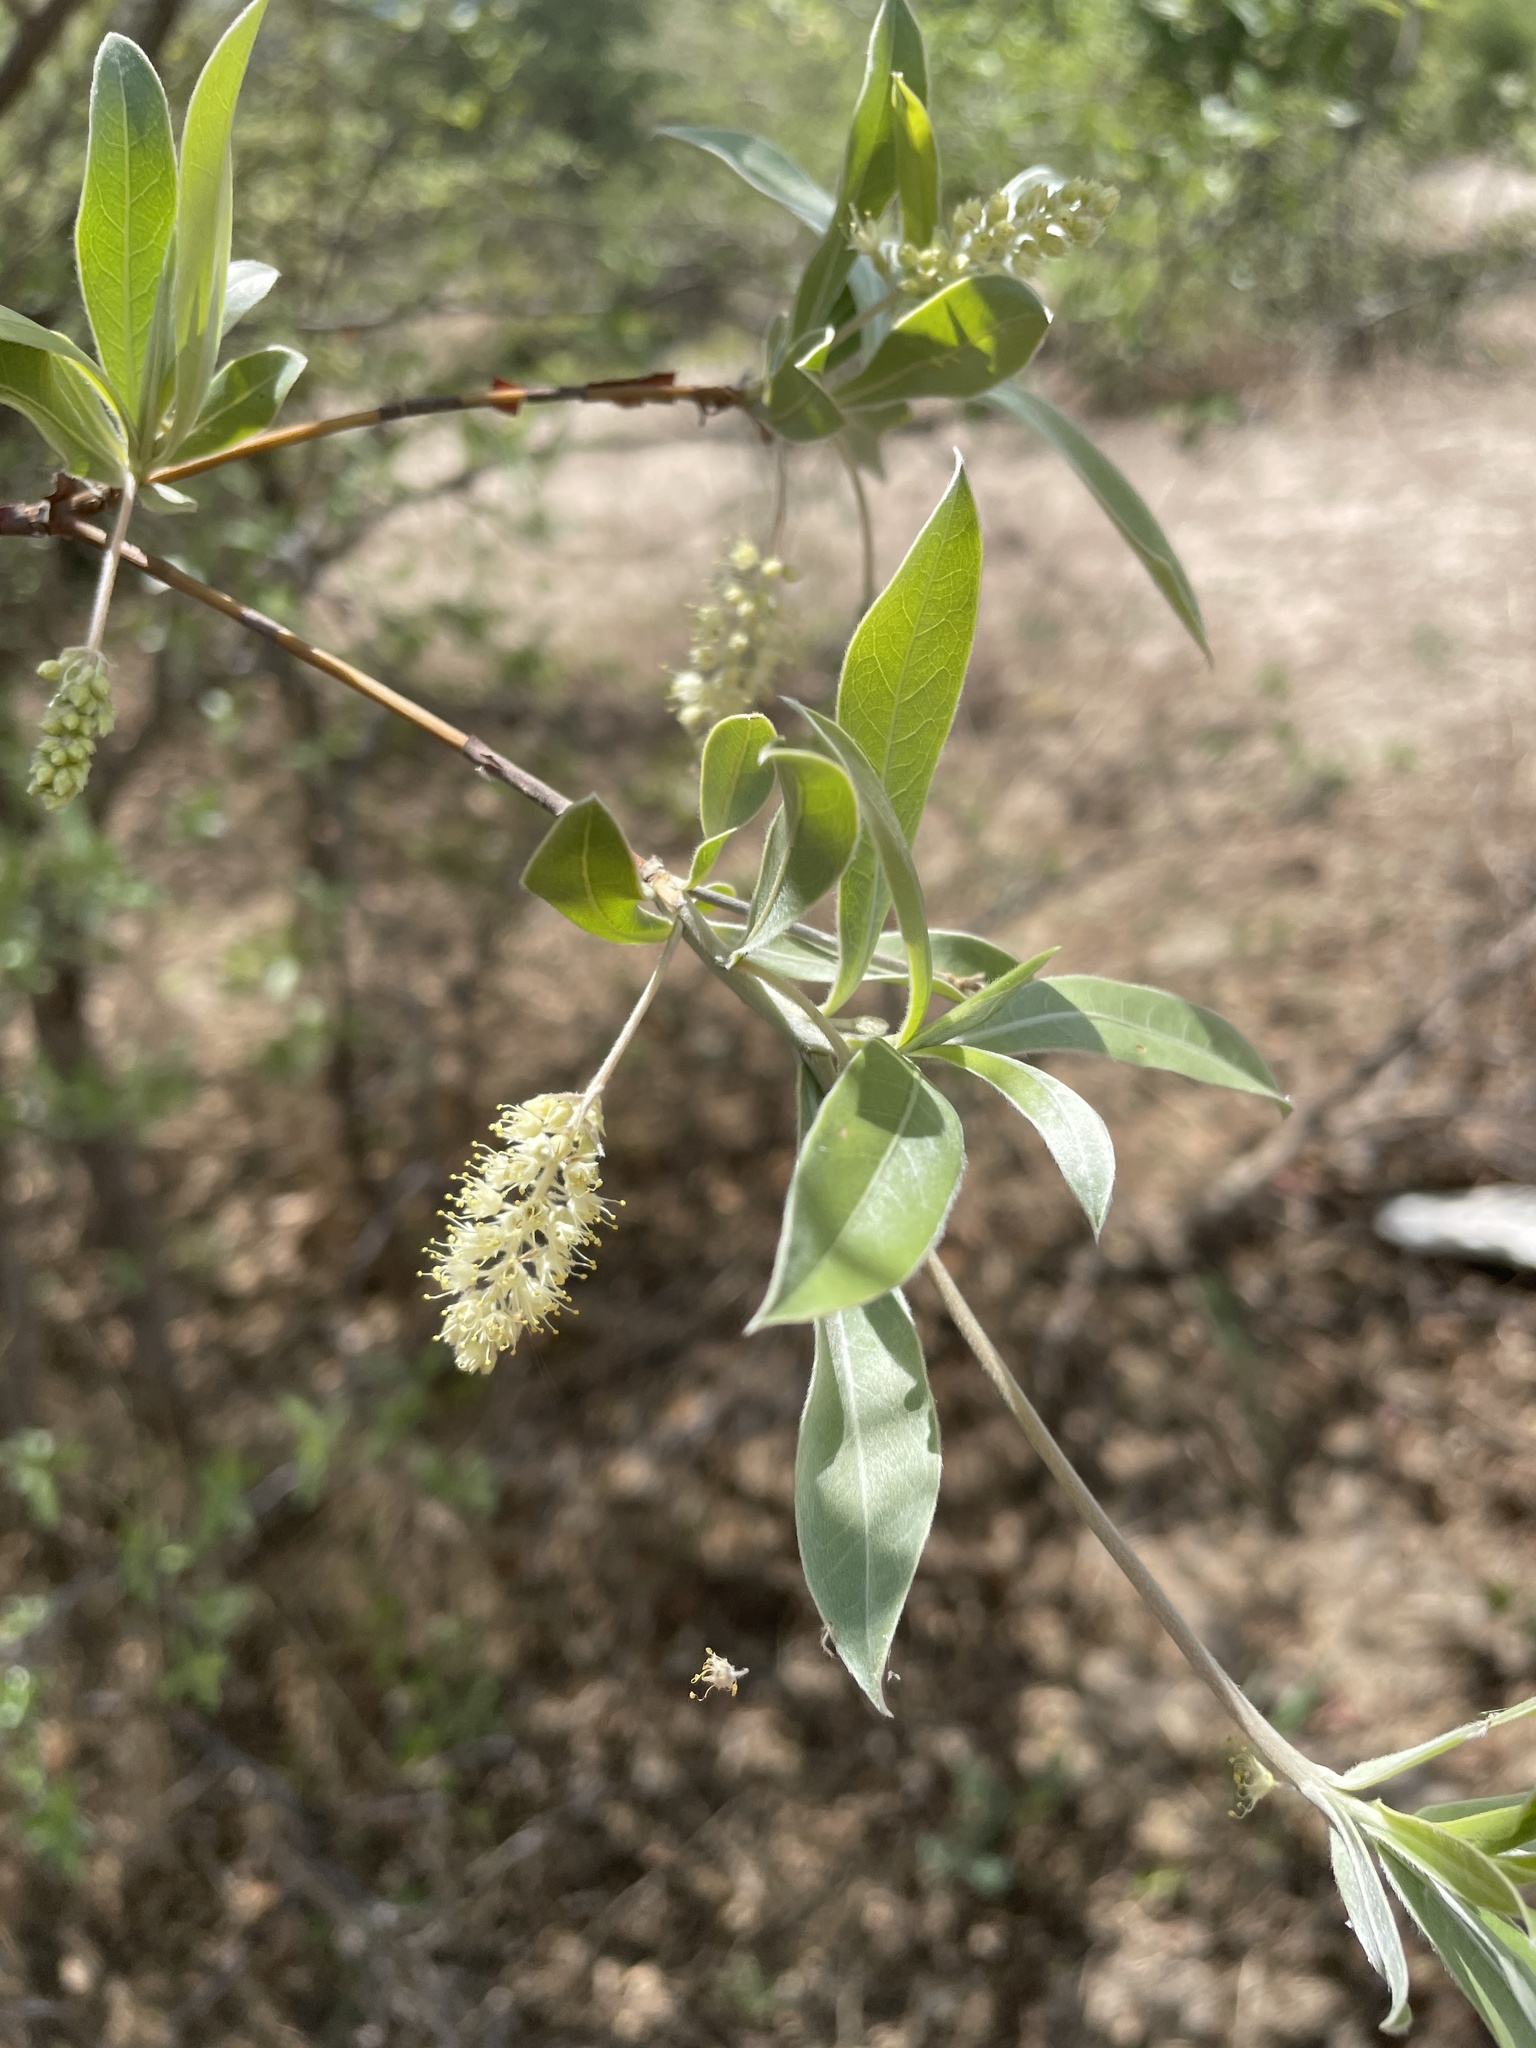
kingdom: Plantae
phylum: Tracheophyta
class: Magnoliopsida
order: Myrtales
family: Combretaceae
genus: Terminalia
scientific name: Terminalia sericea
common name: Clusterleaf
